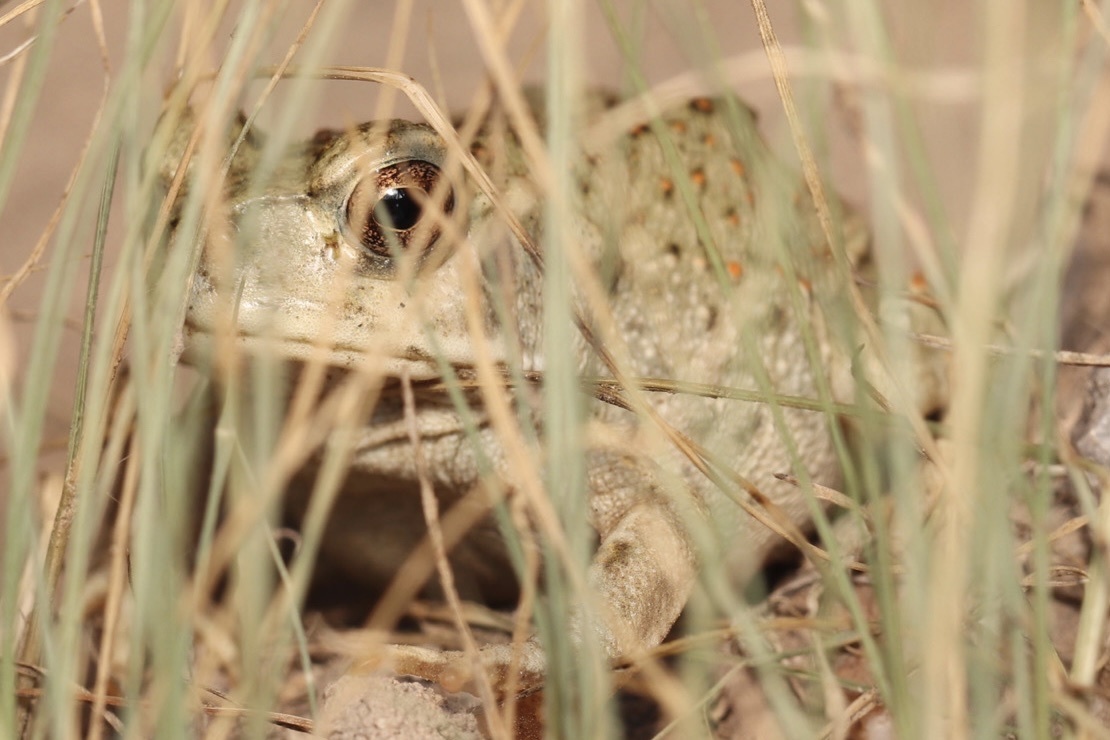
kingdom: Animalia
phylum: Chordata
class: Amphibia
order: Anura
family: Bufonidae
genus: Incilius
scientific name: Incilius alvarius
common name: Sonoran desert toad
